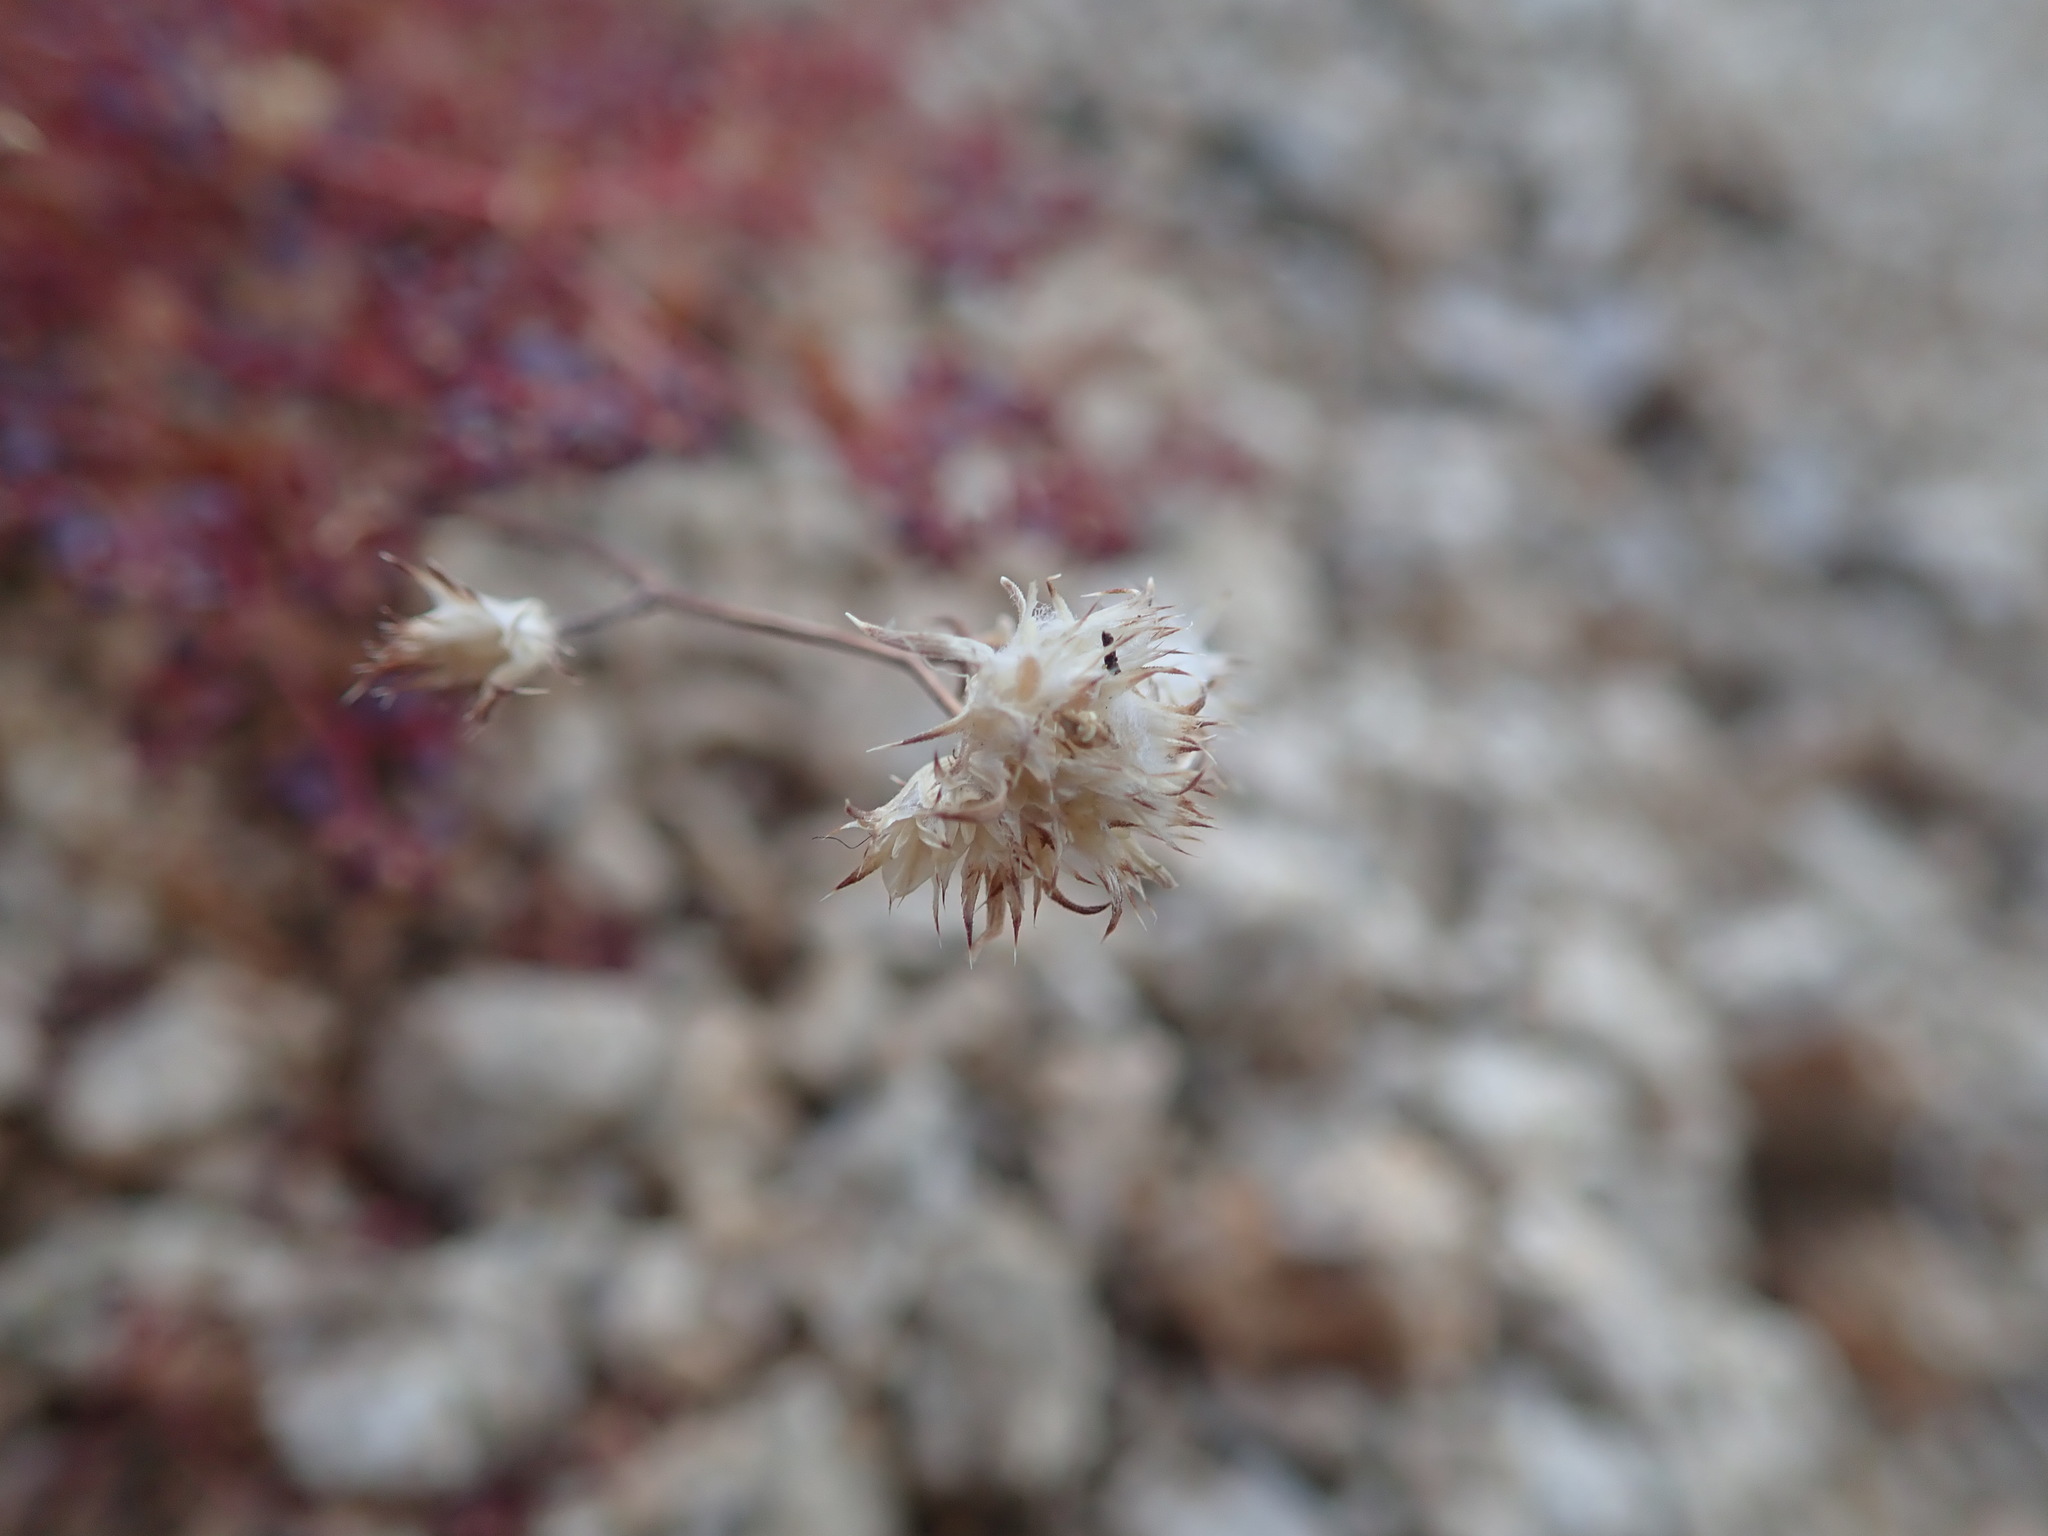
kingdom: Plantae
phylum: Tracheophyta
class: Magnoliopsida
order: Malpighiales
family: Euphorbiaceae
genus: Euphorbia
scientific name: Euphorbia polycarpa
